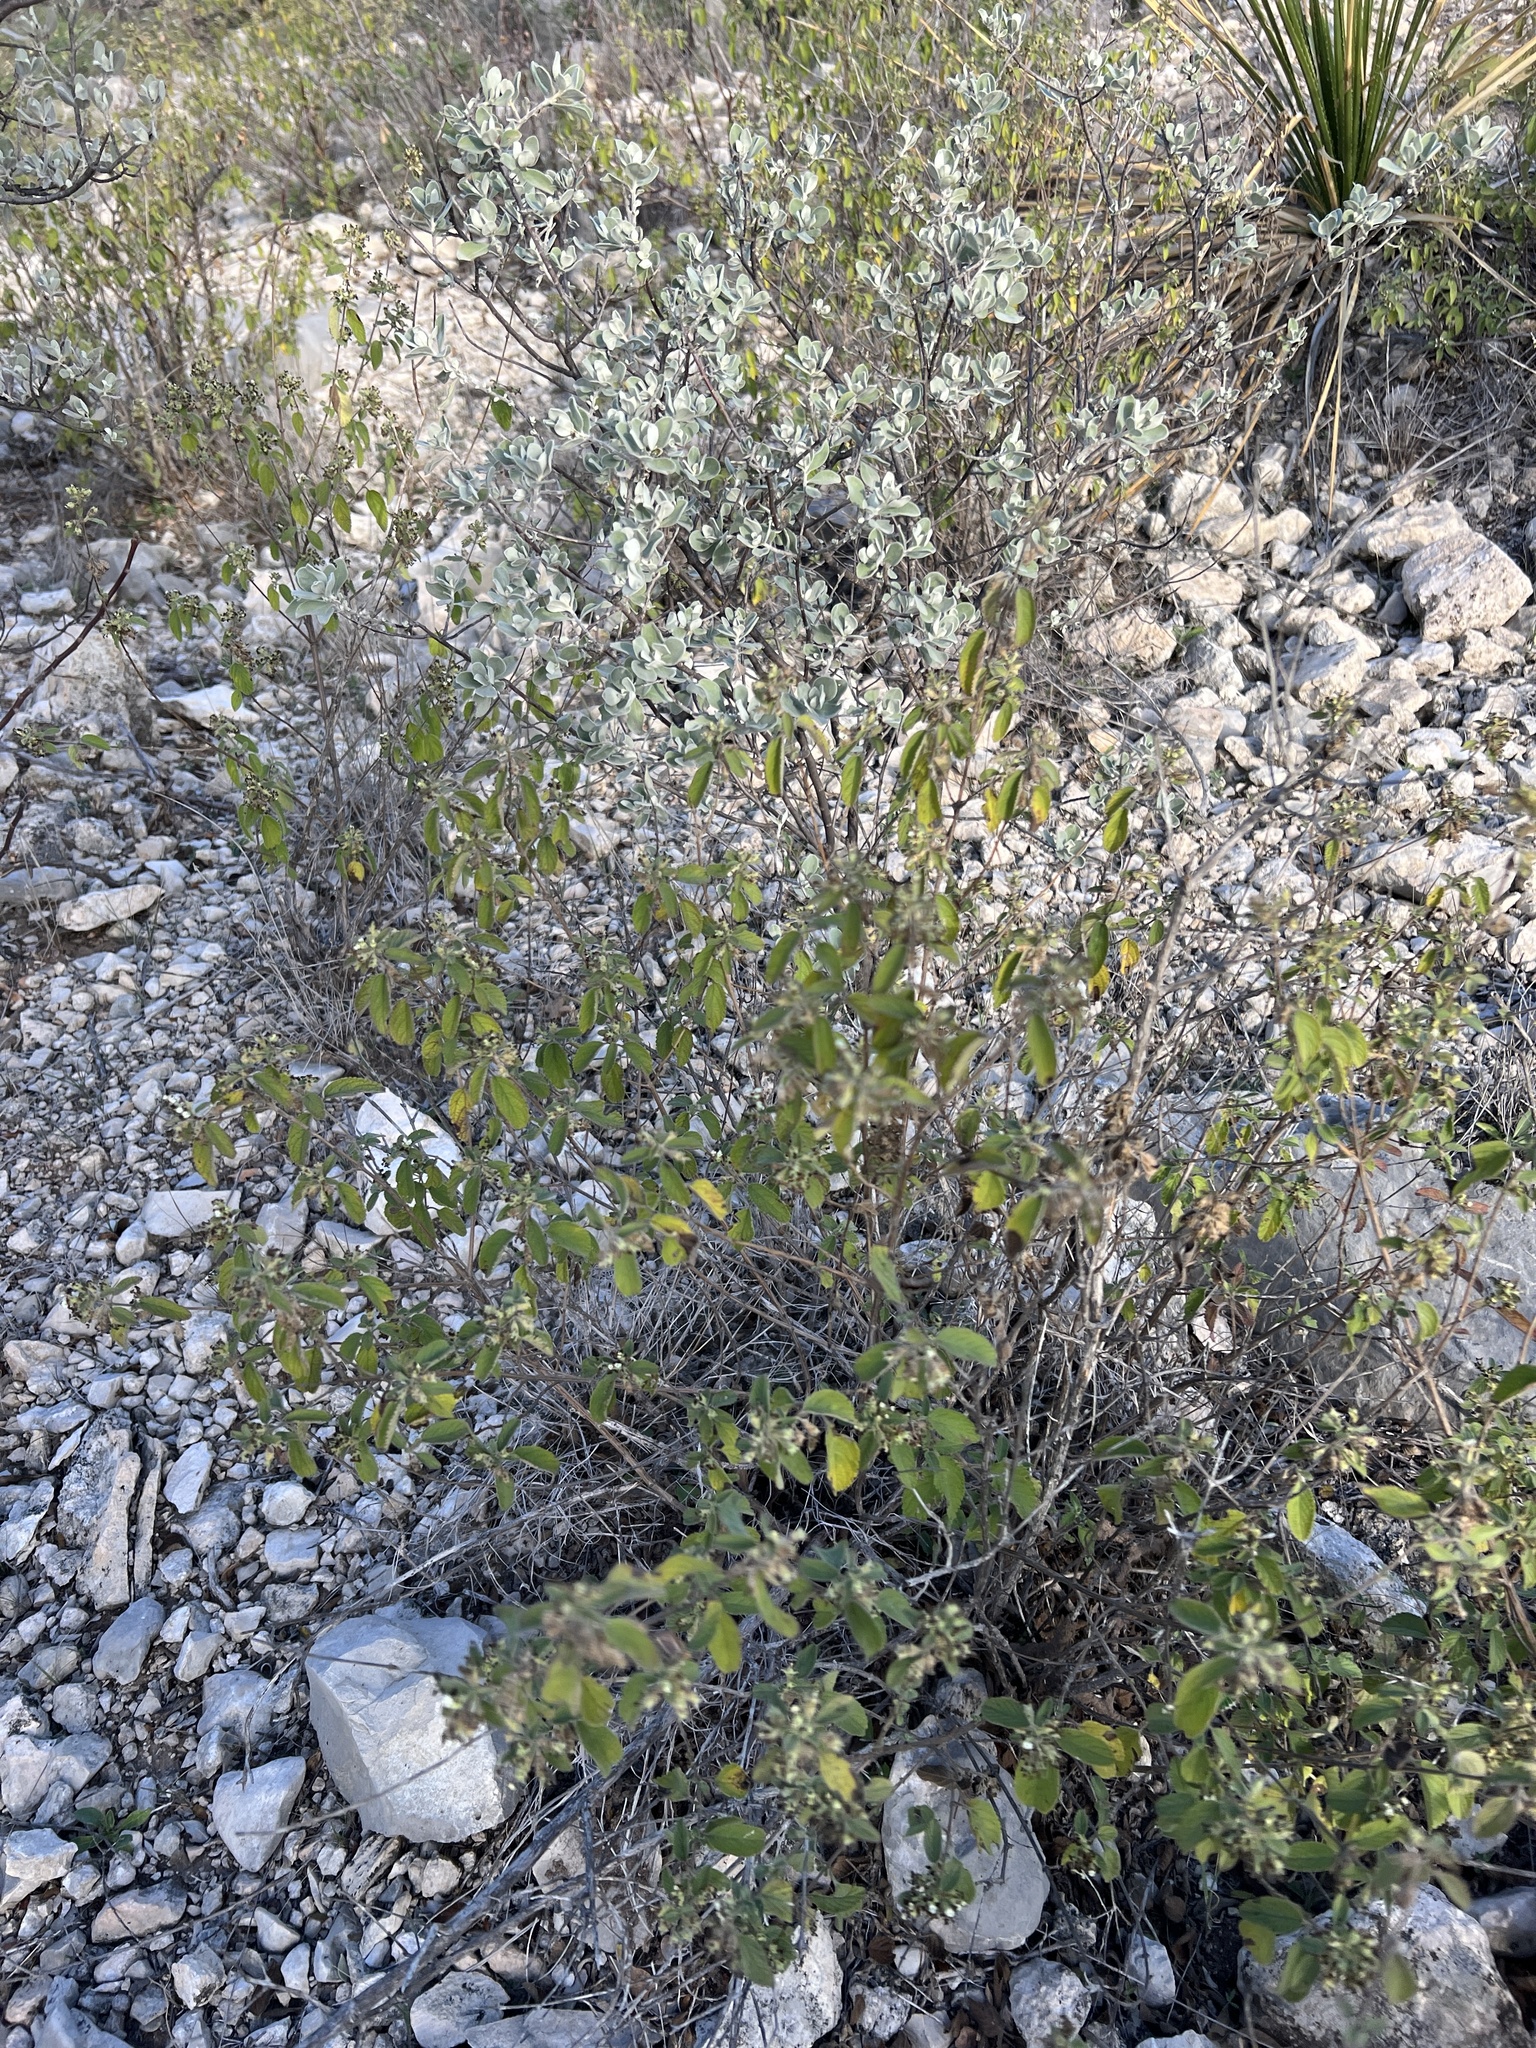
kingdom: Plantae
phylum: Tracheophyta
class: Magnoliopsida
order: Lamiales
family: Verbenaceae
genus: Lippia
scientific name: Lippia origanoides
